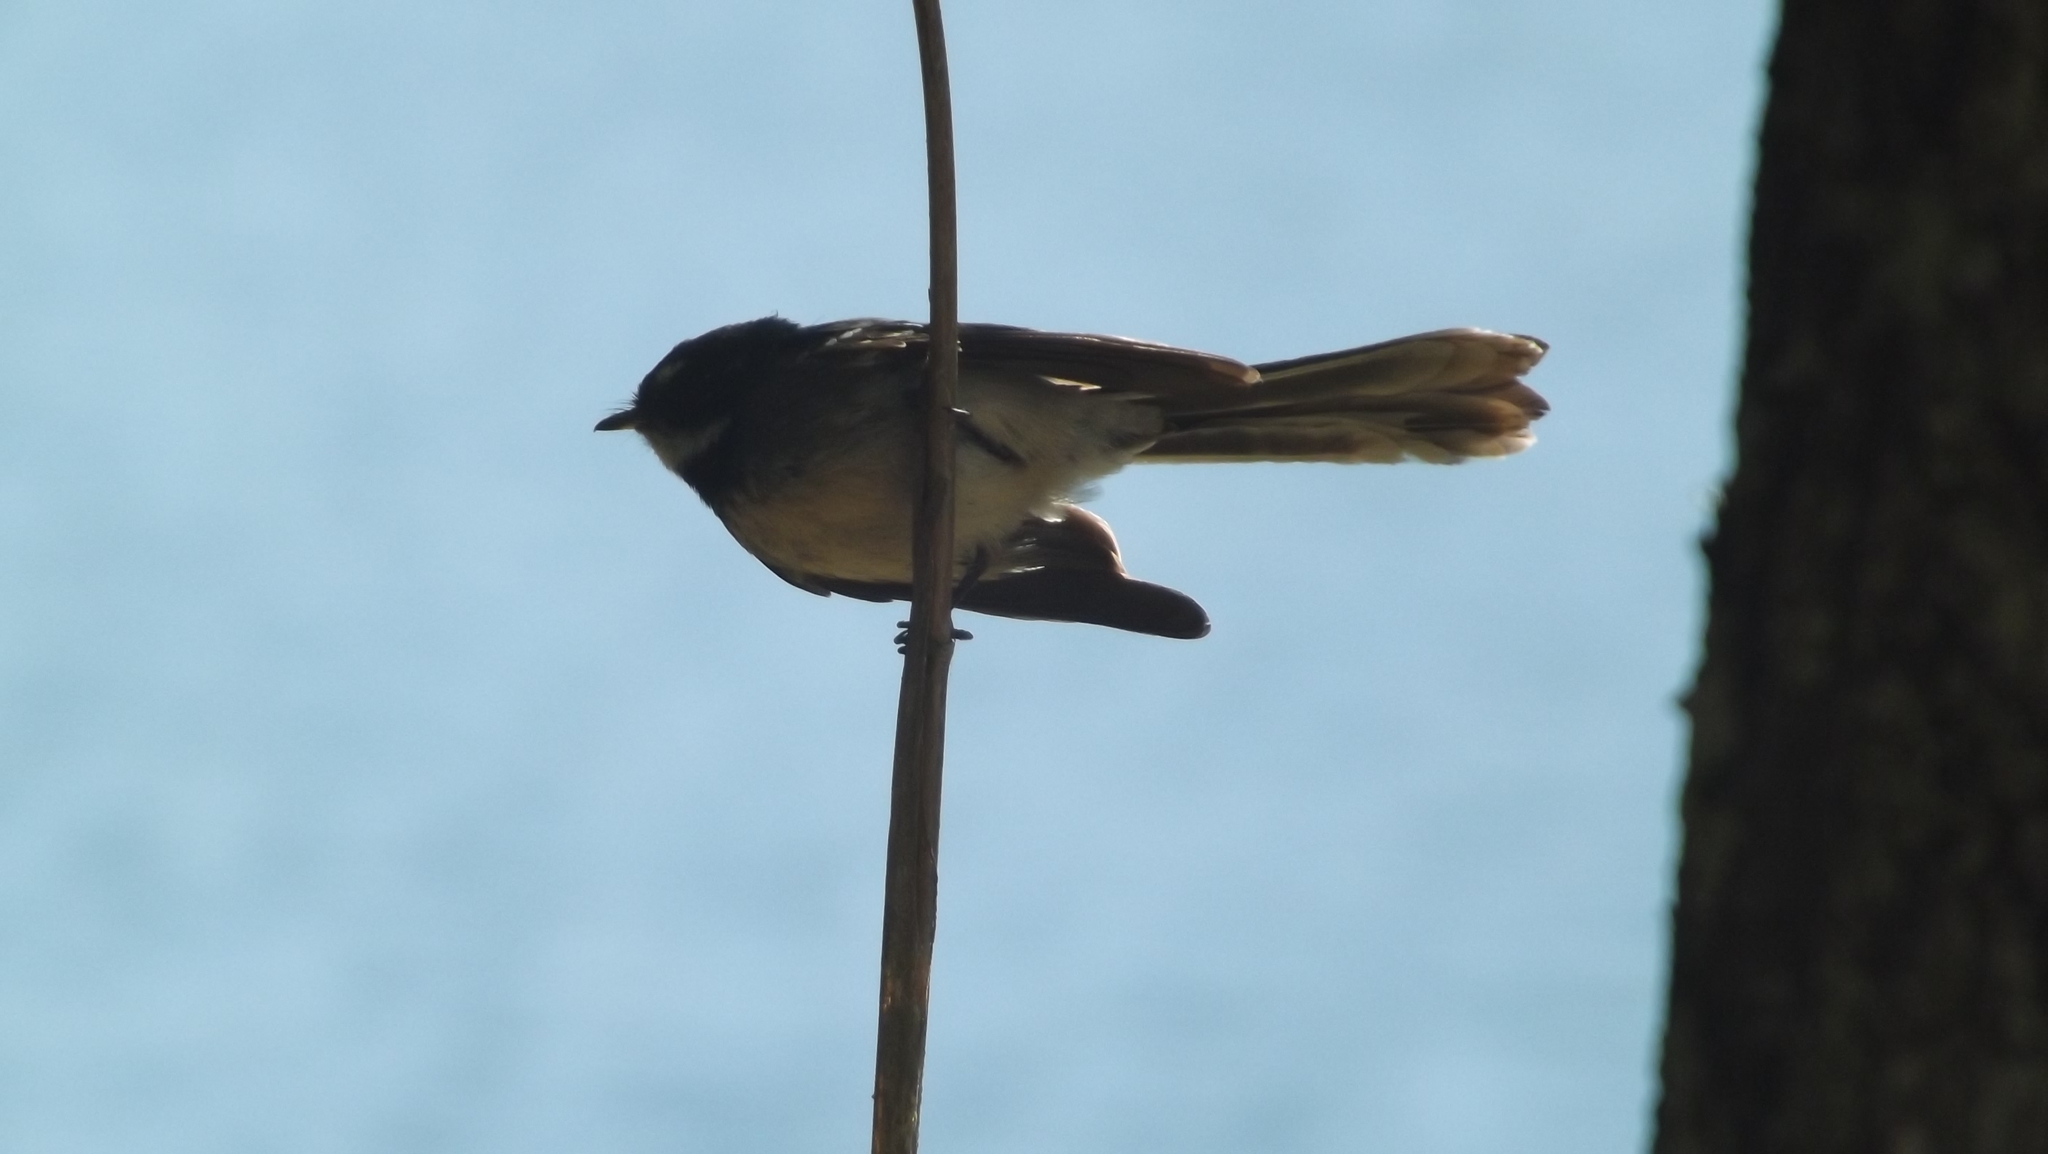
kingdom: Animalia
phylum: Chordata
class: Aves
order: Passeriformes
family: Rhipiduridae
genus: Rhipidura
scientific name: Rhipidura albiscapa
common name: Grey fantail
